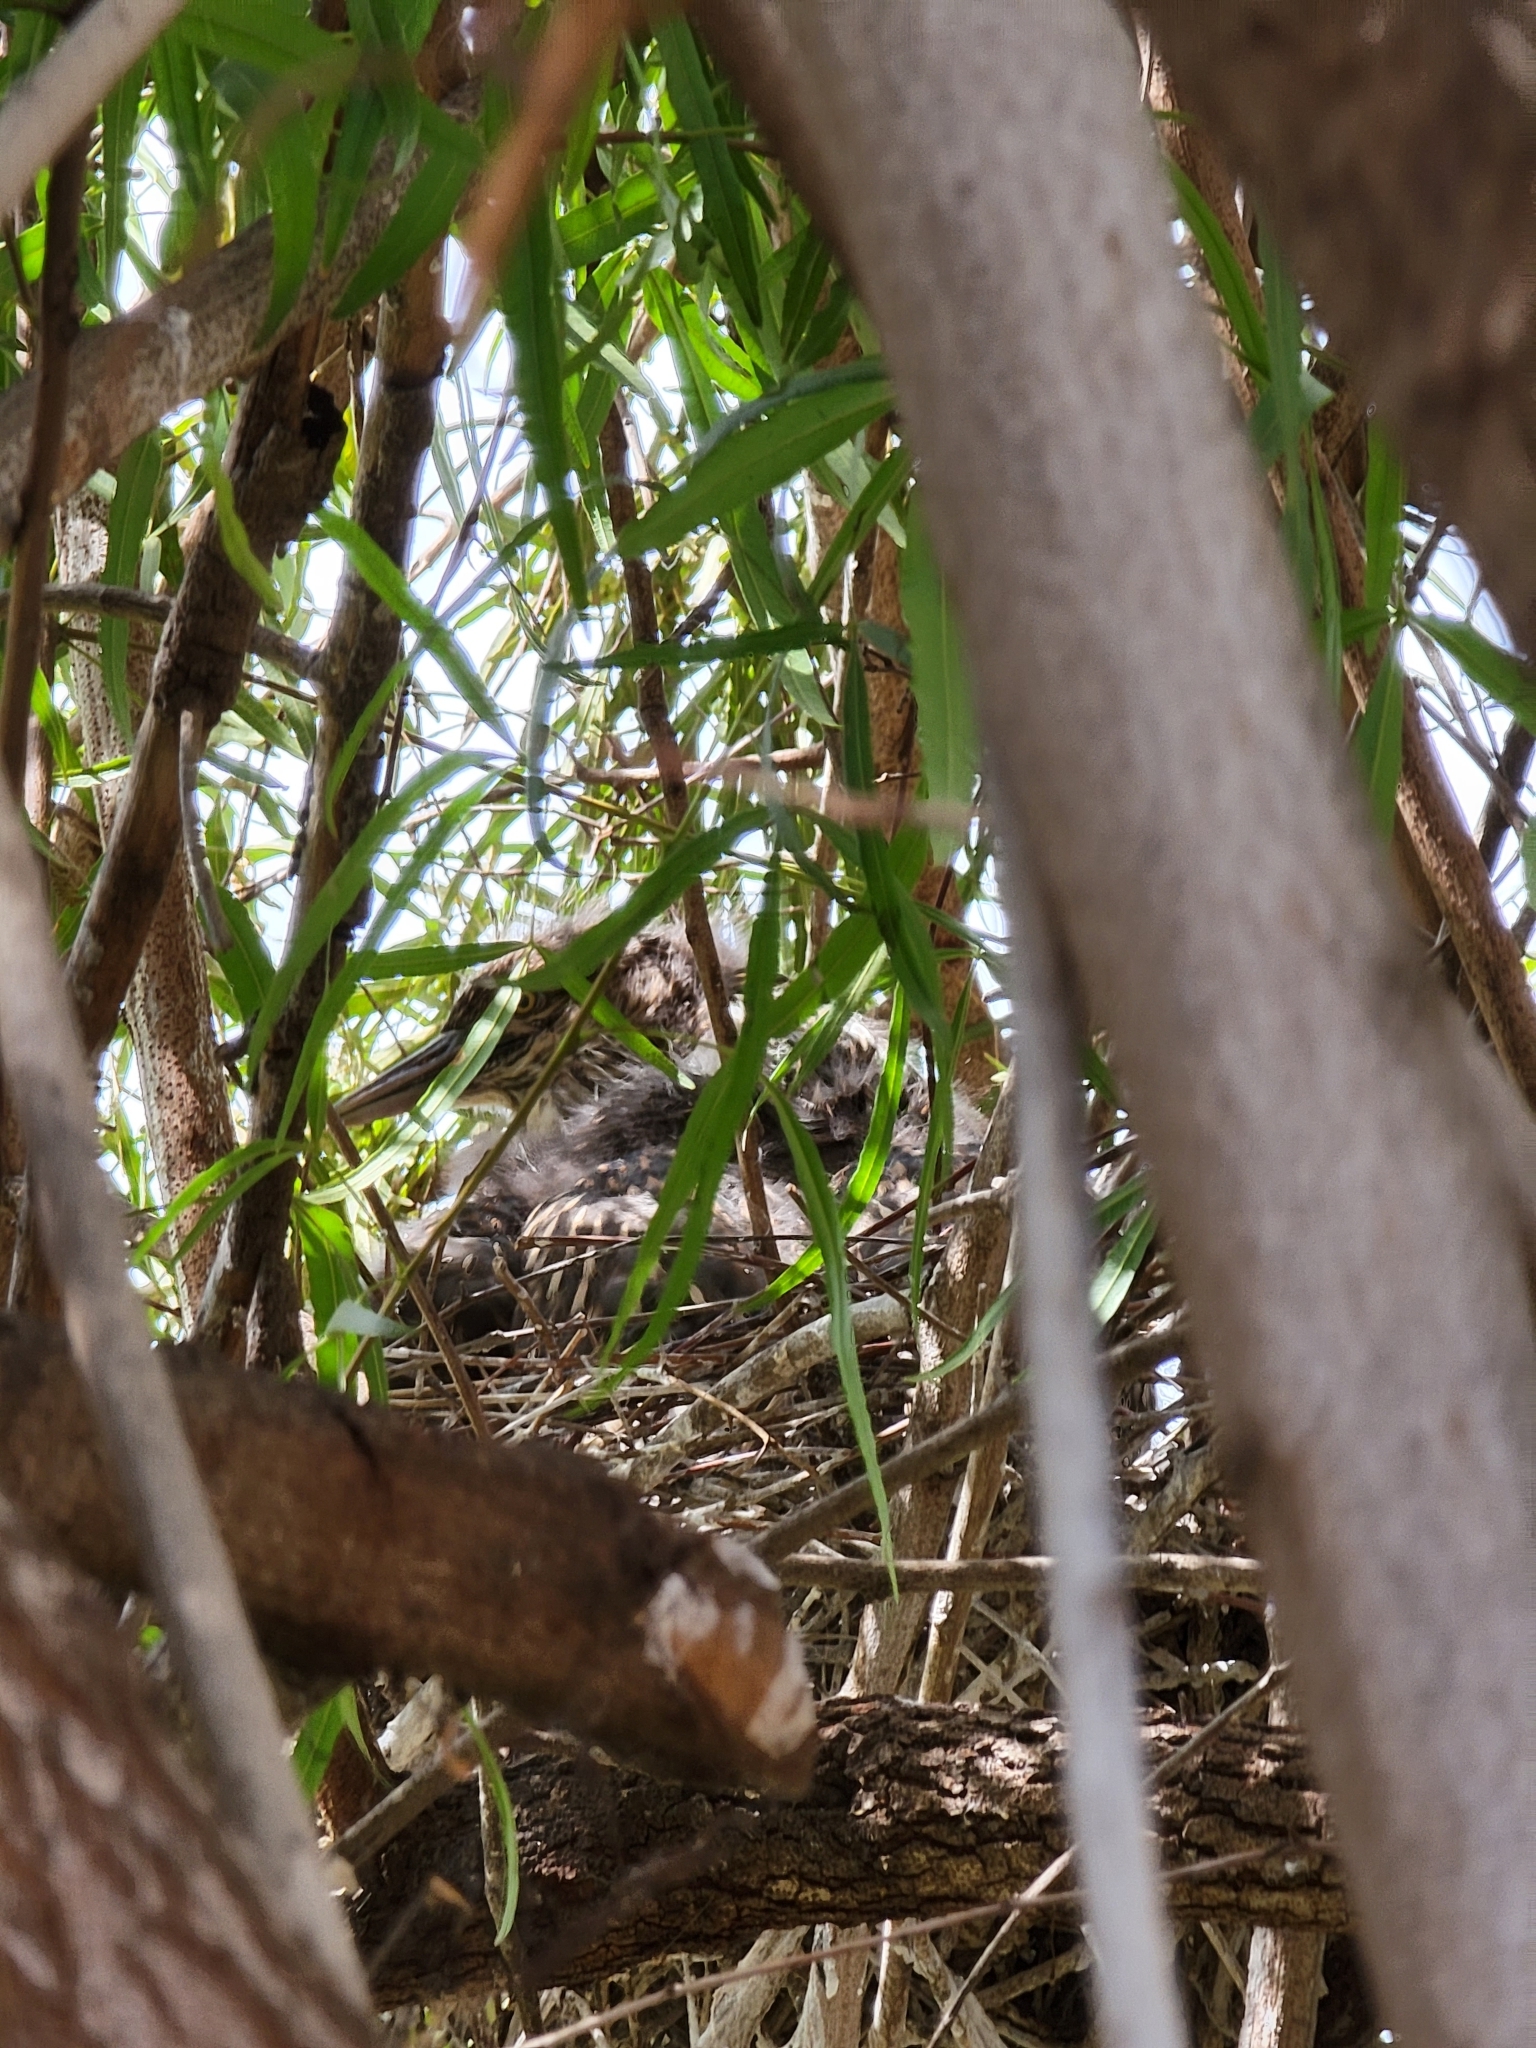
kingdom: Animalia
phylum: Chordata
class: Aves
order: Pelecaniformes
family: Ardeidae
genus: Nycticorax
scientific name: Nycticorax nycticorax
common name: Black-crowned night heron
